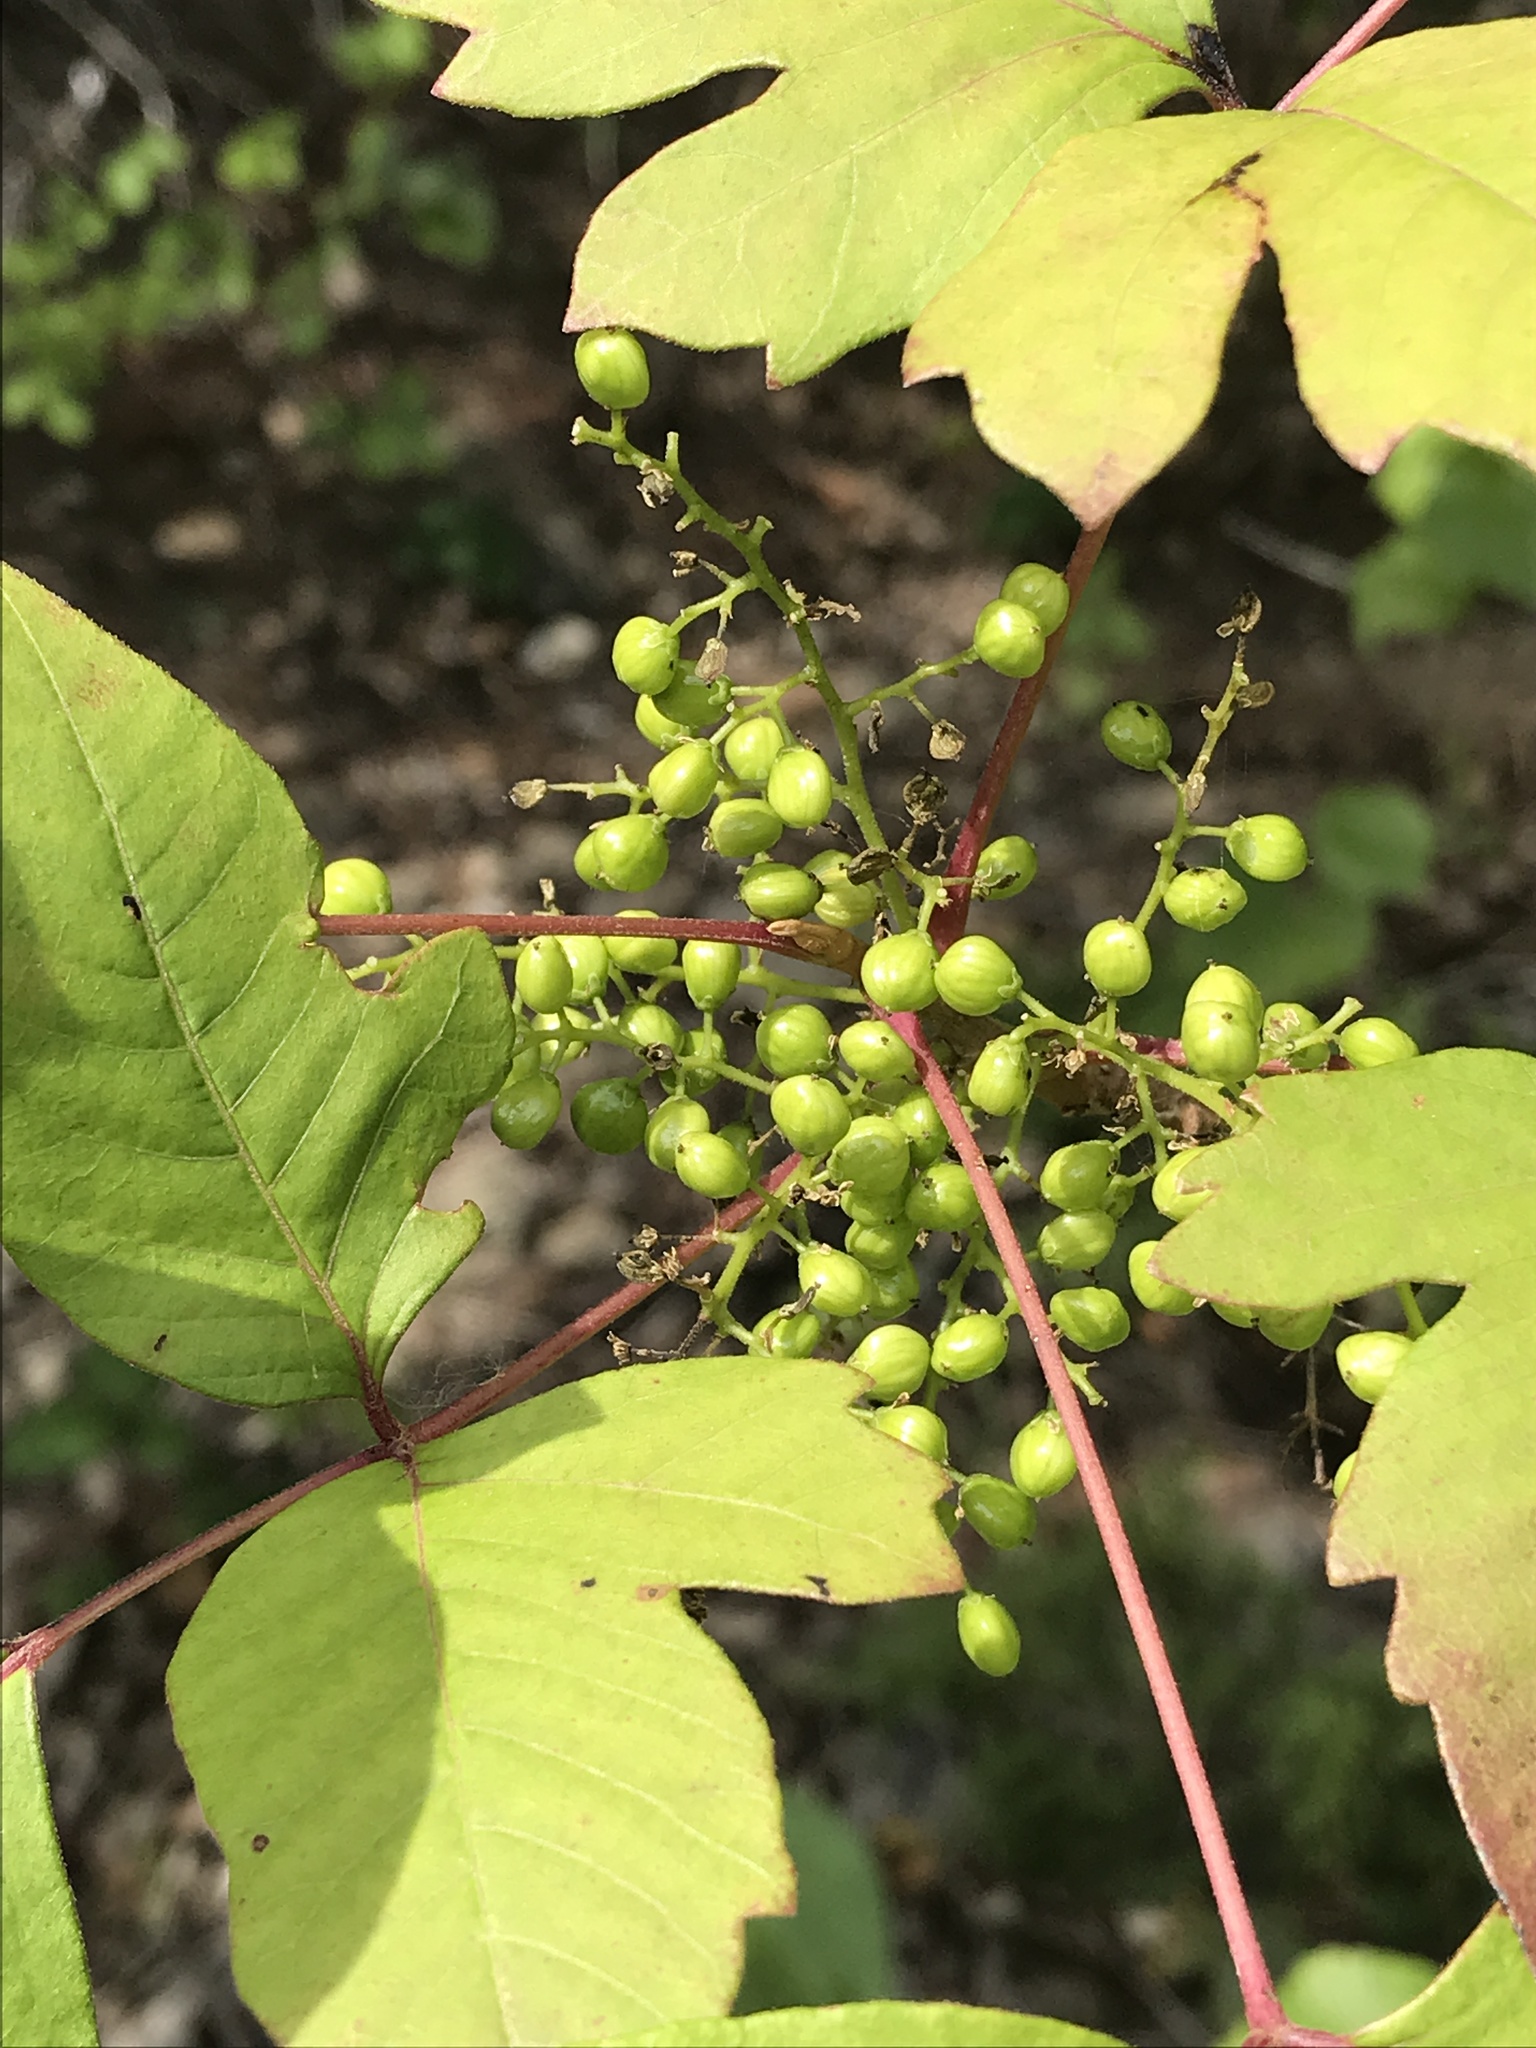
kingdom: Plantae
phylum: Tracheophyta
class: Magnoliopsida
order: Sapindales
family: Anacardiaceae
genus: Toxicodendron
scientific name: Toxicodendron radicans
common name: Poison ivy
